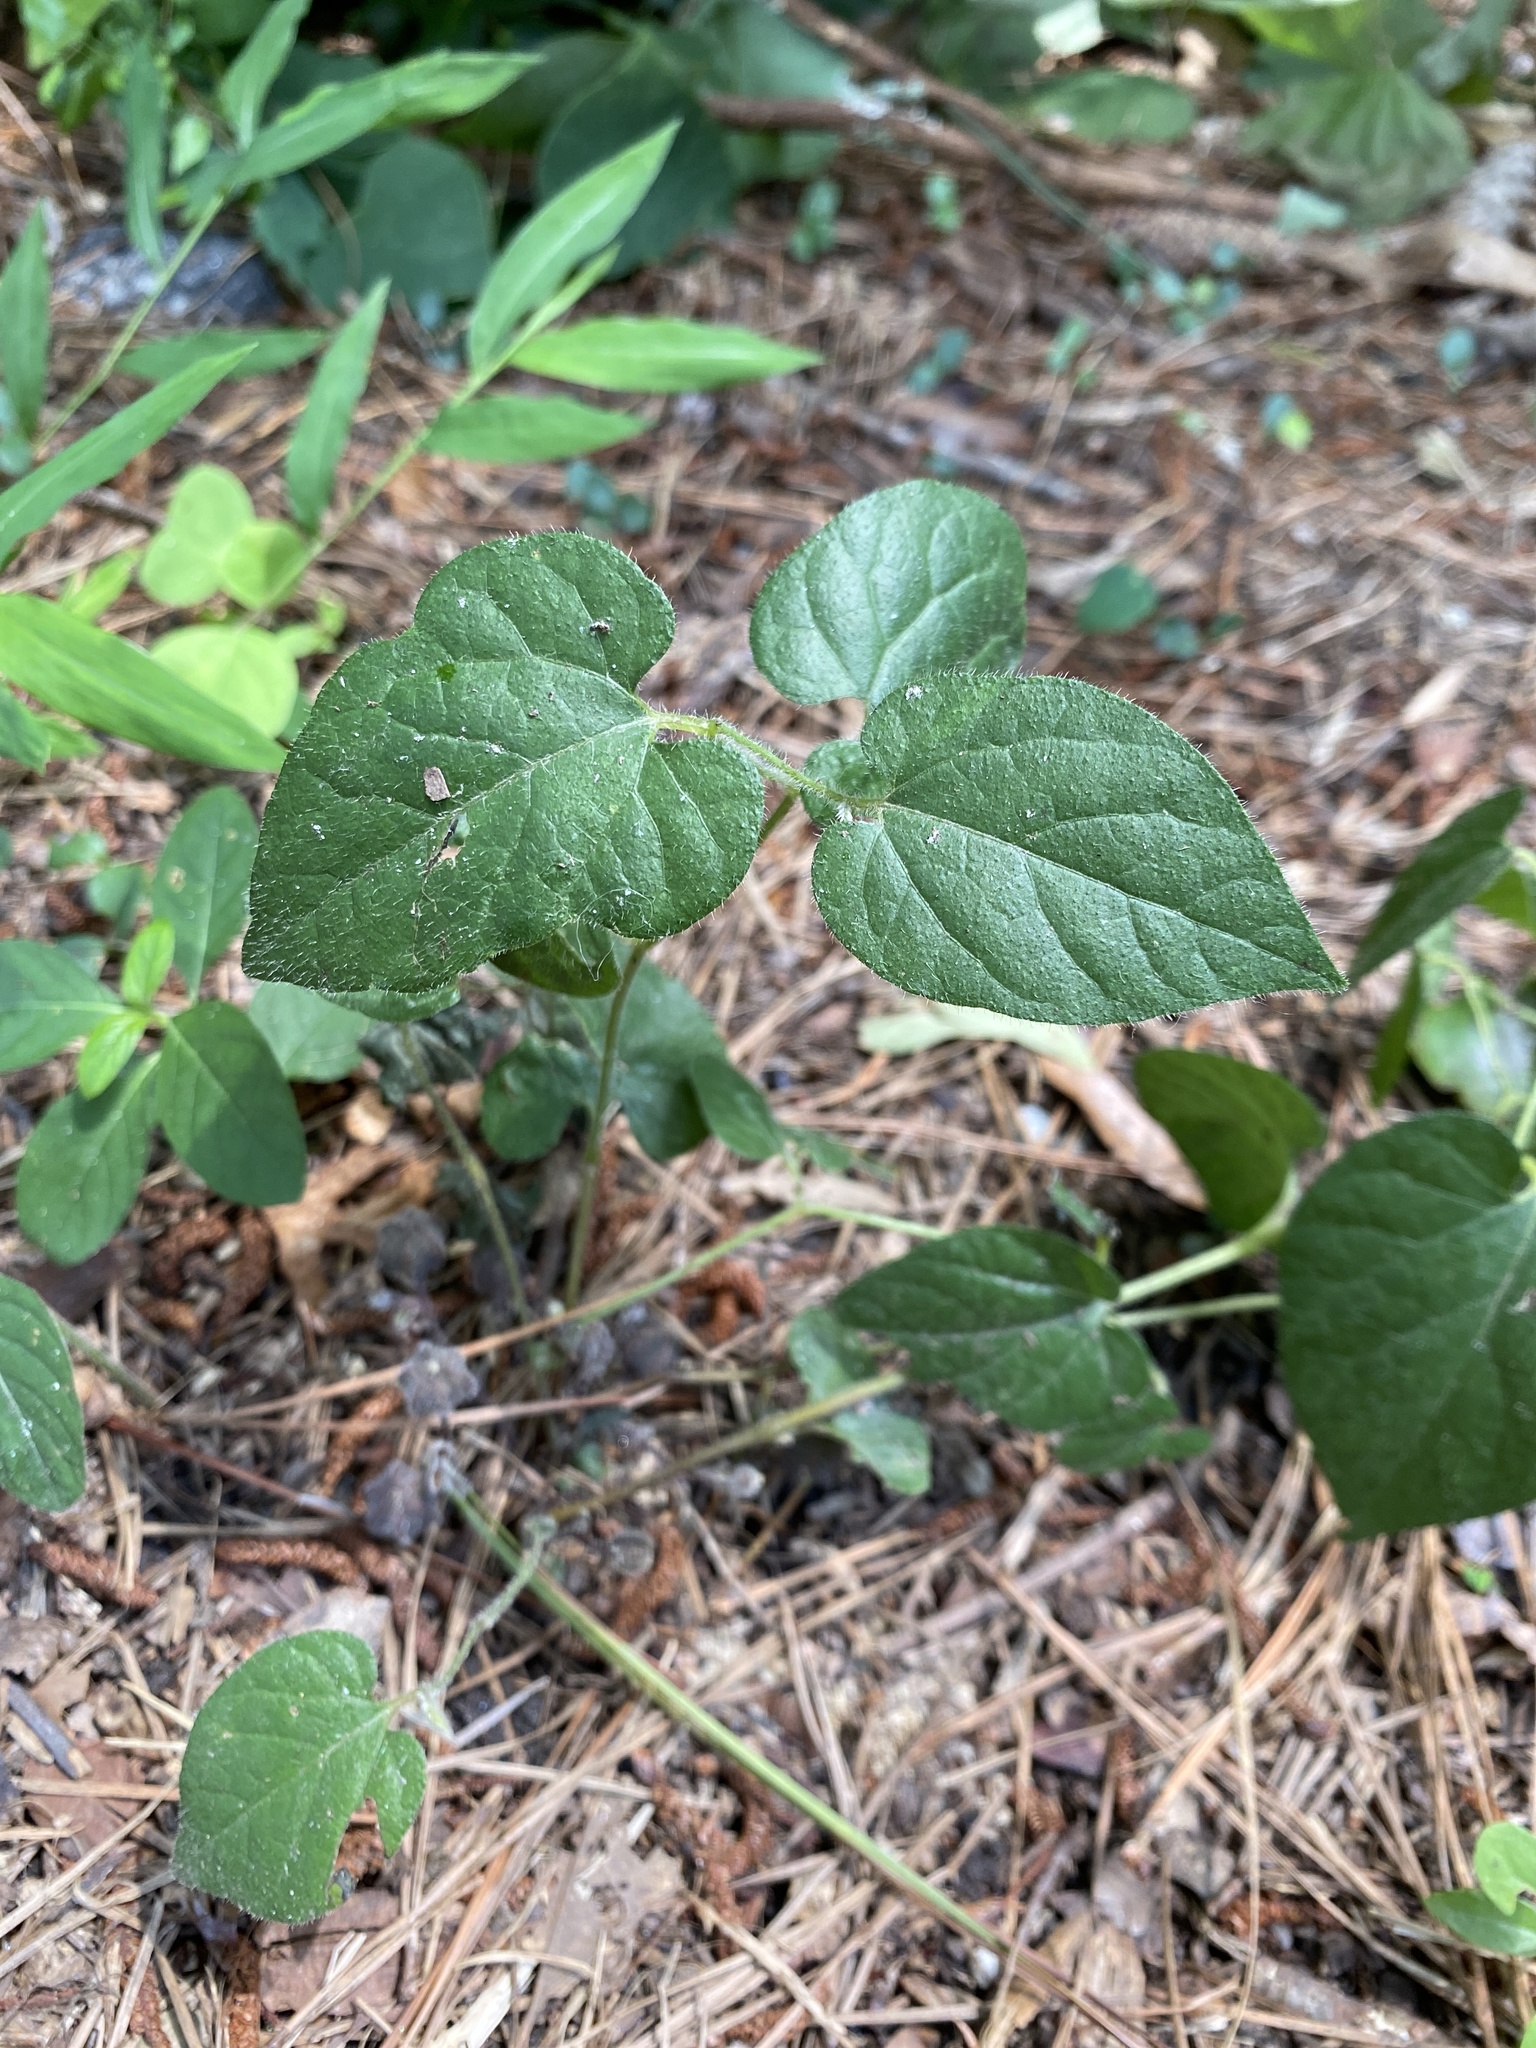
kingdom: Plantae
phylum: Tracheophyta
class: Magnoliopsida
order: Piperales
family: Aristolochiaceae
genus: Endodeca
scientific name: Endodeca serpentaria
